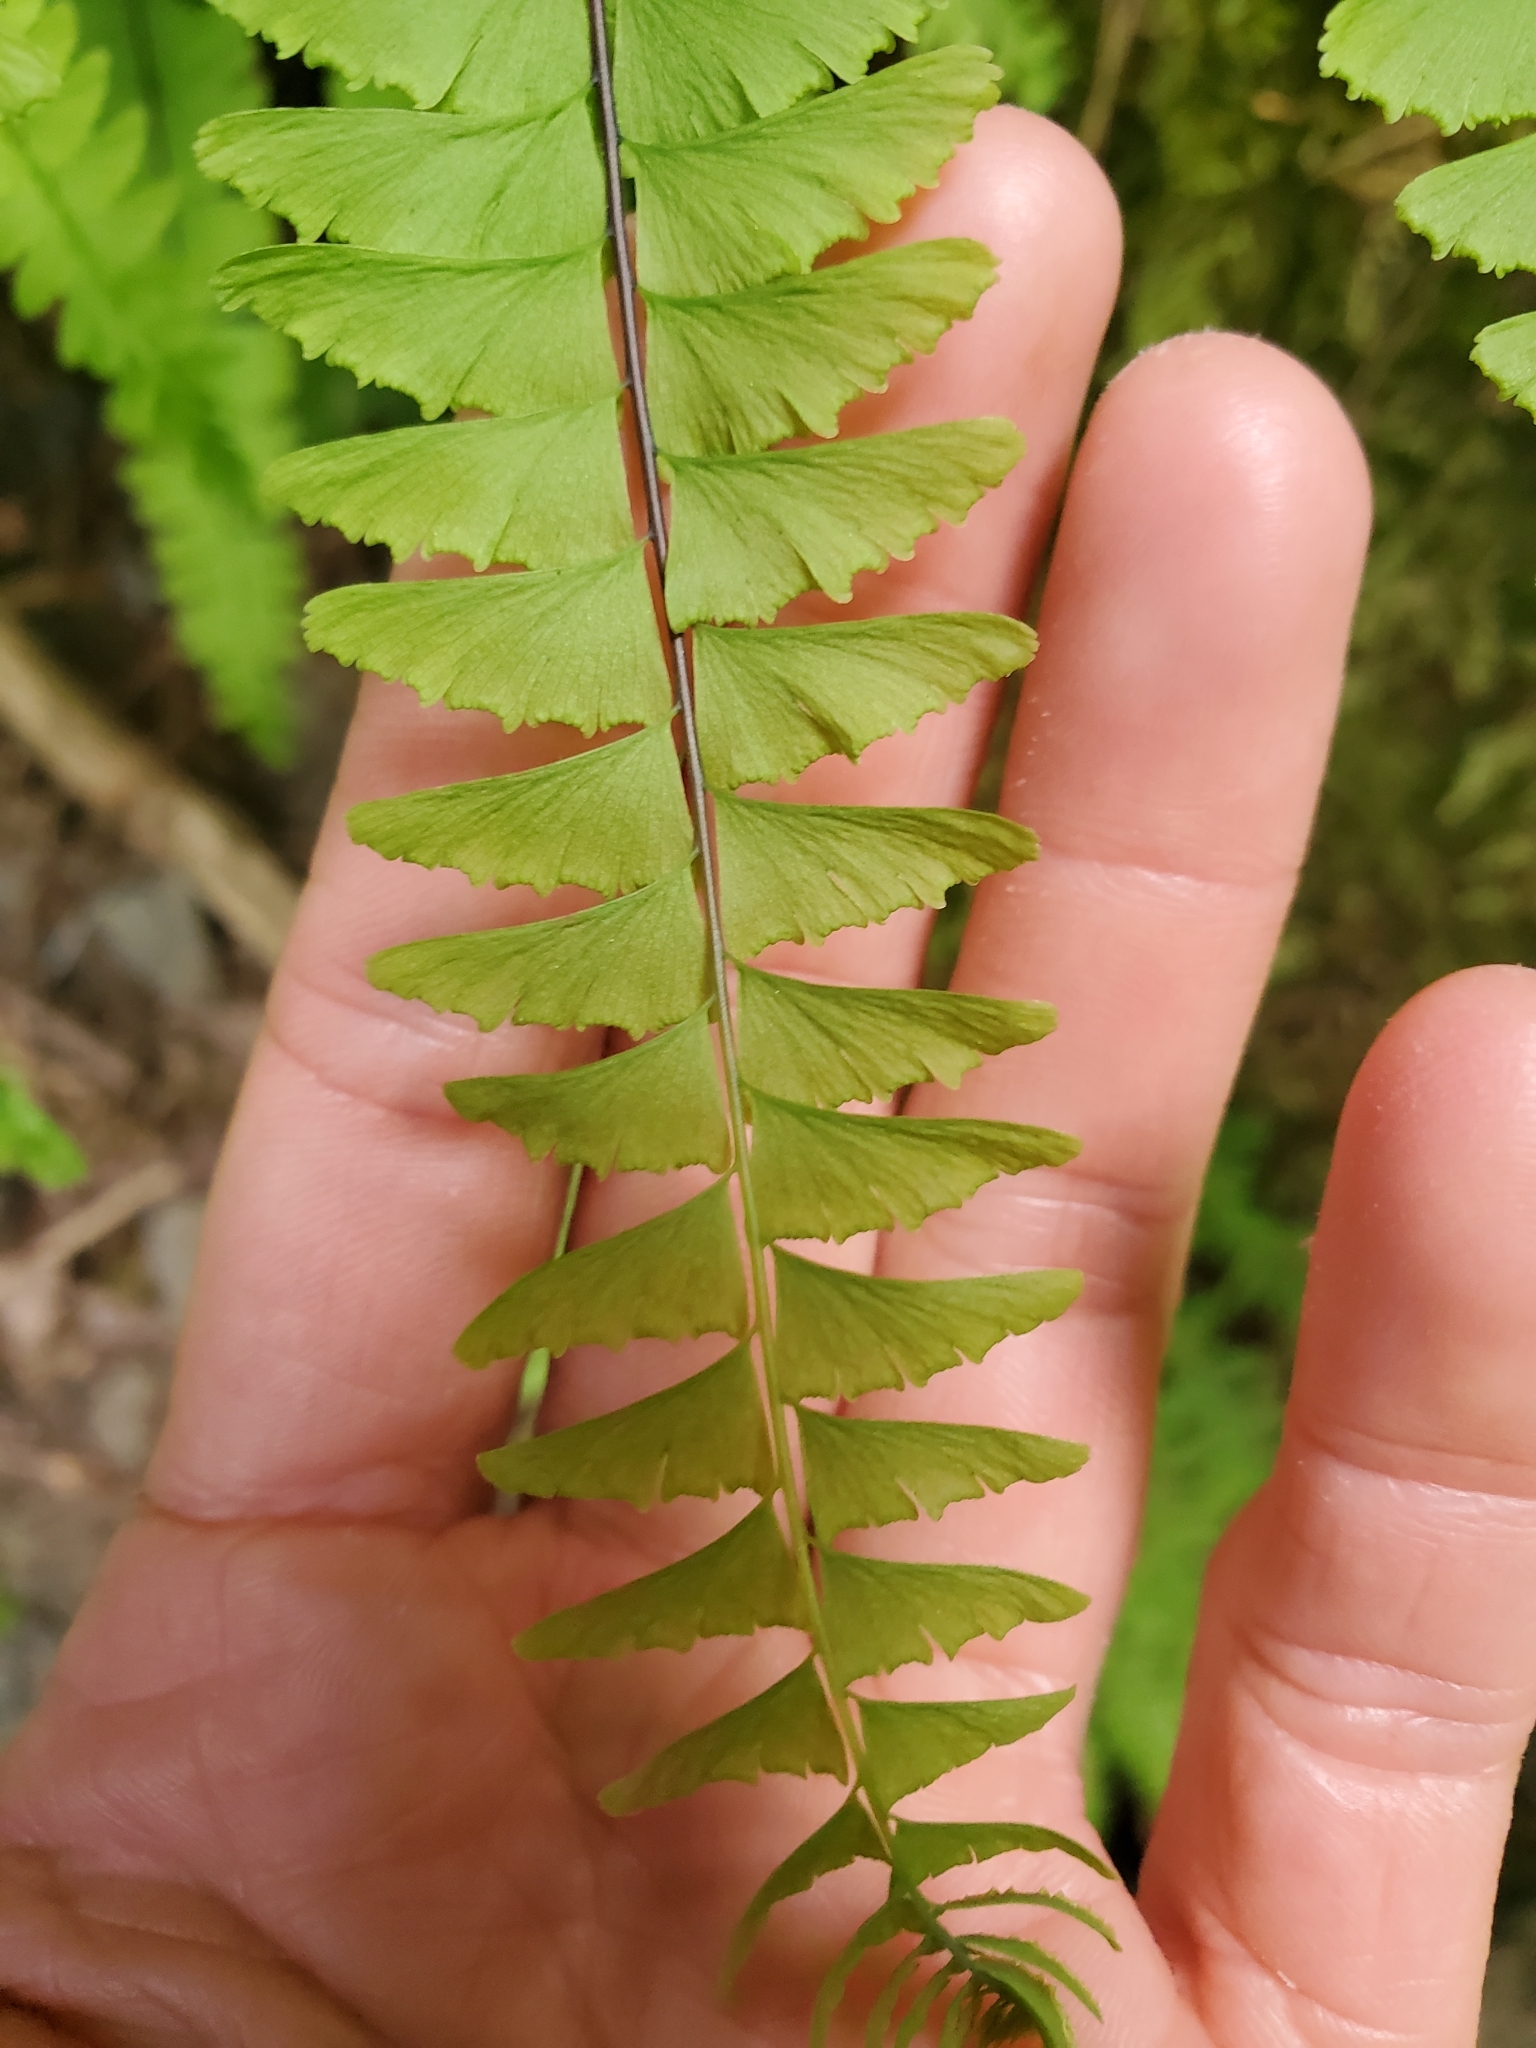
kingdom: Plantae
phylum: Tracheophyta
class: Polypodiopsida
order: Polypodiales
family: Pteridaceae
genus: Adiantum
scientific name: Adiantum aleuticum
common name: Aleutian maidenhair fern
